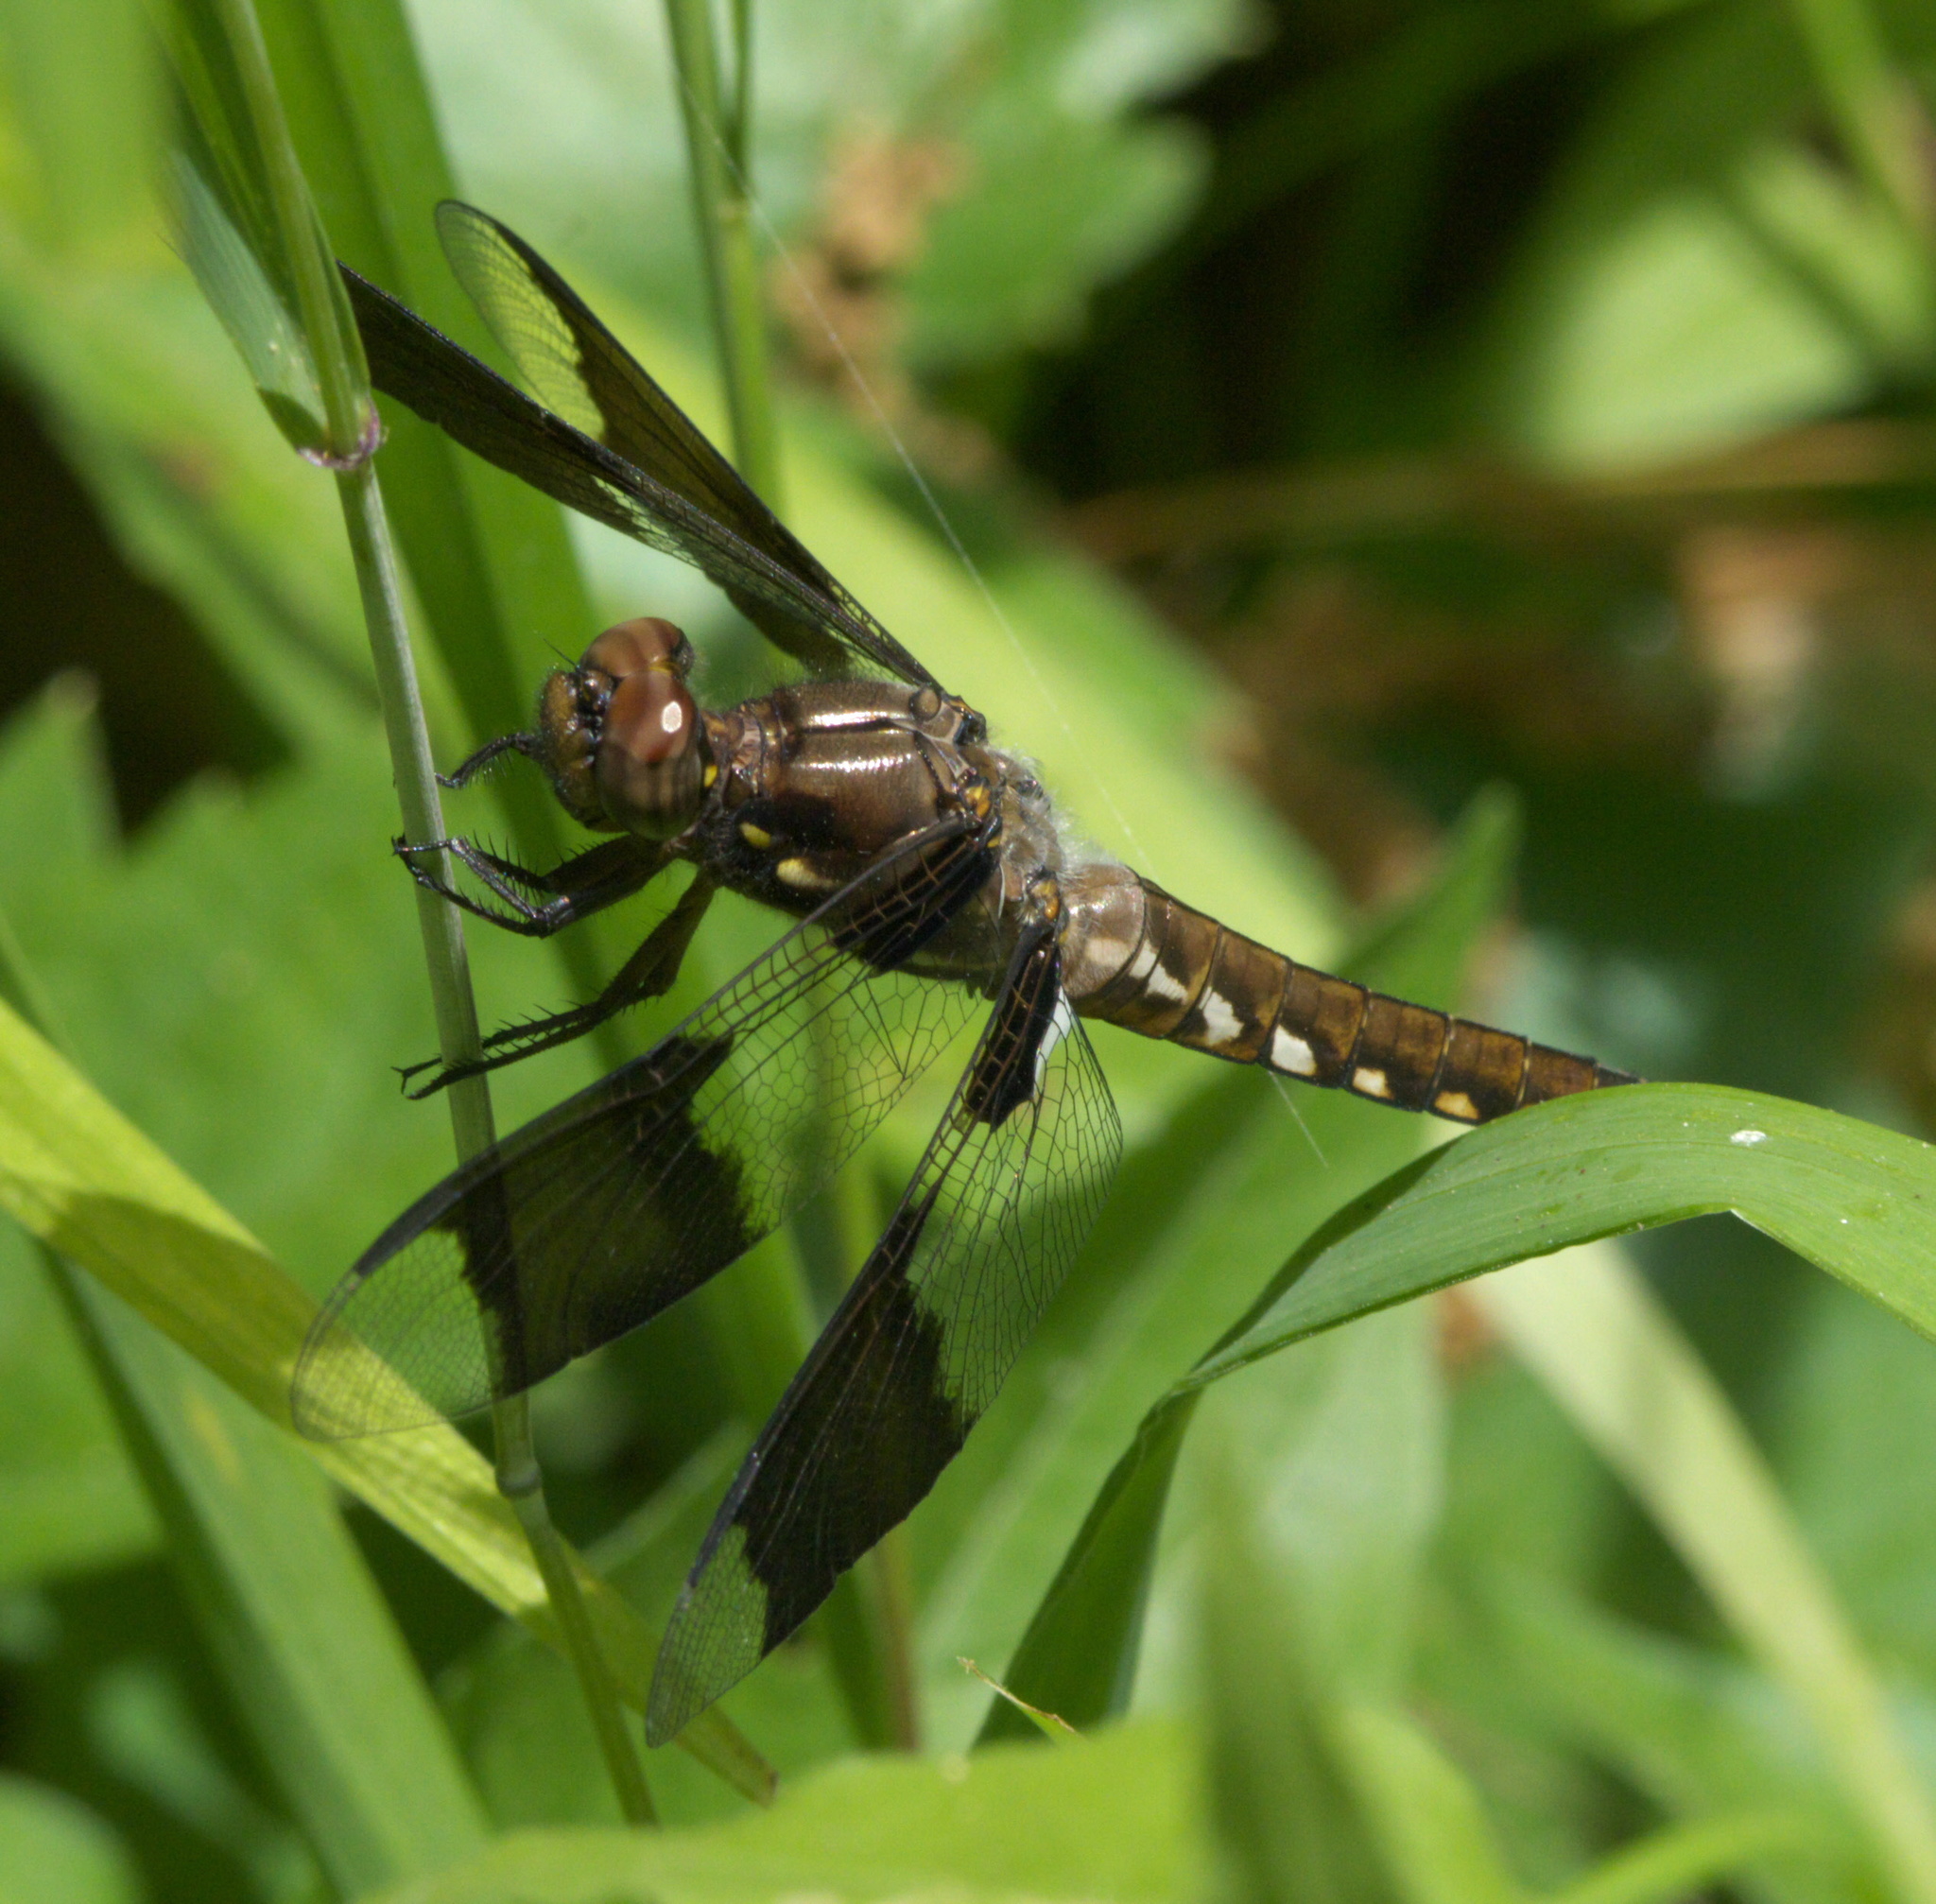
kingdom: Animalia
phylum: Arthropoda
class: Insecta
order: Odonata
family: Libellulidae
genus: Plathemis
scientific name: Plathemis lydia
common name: Common whitetail
